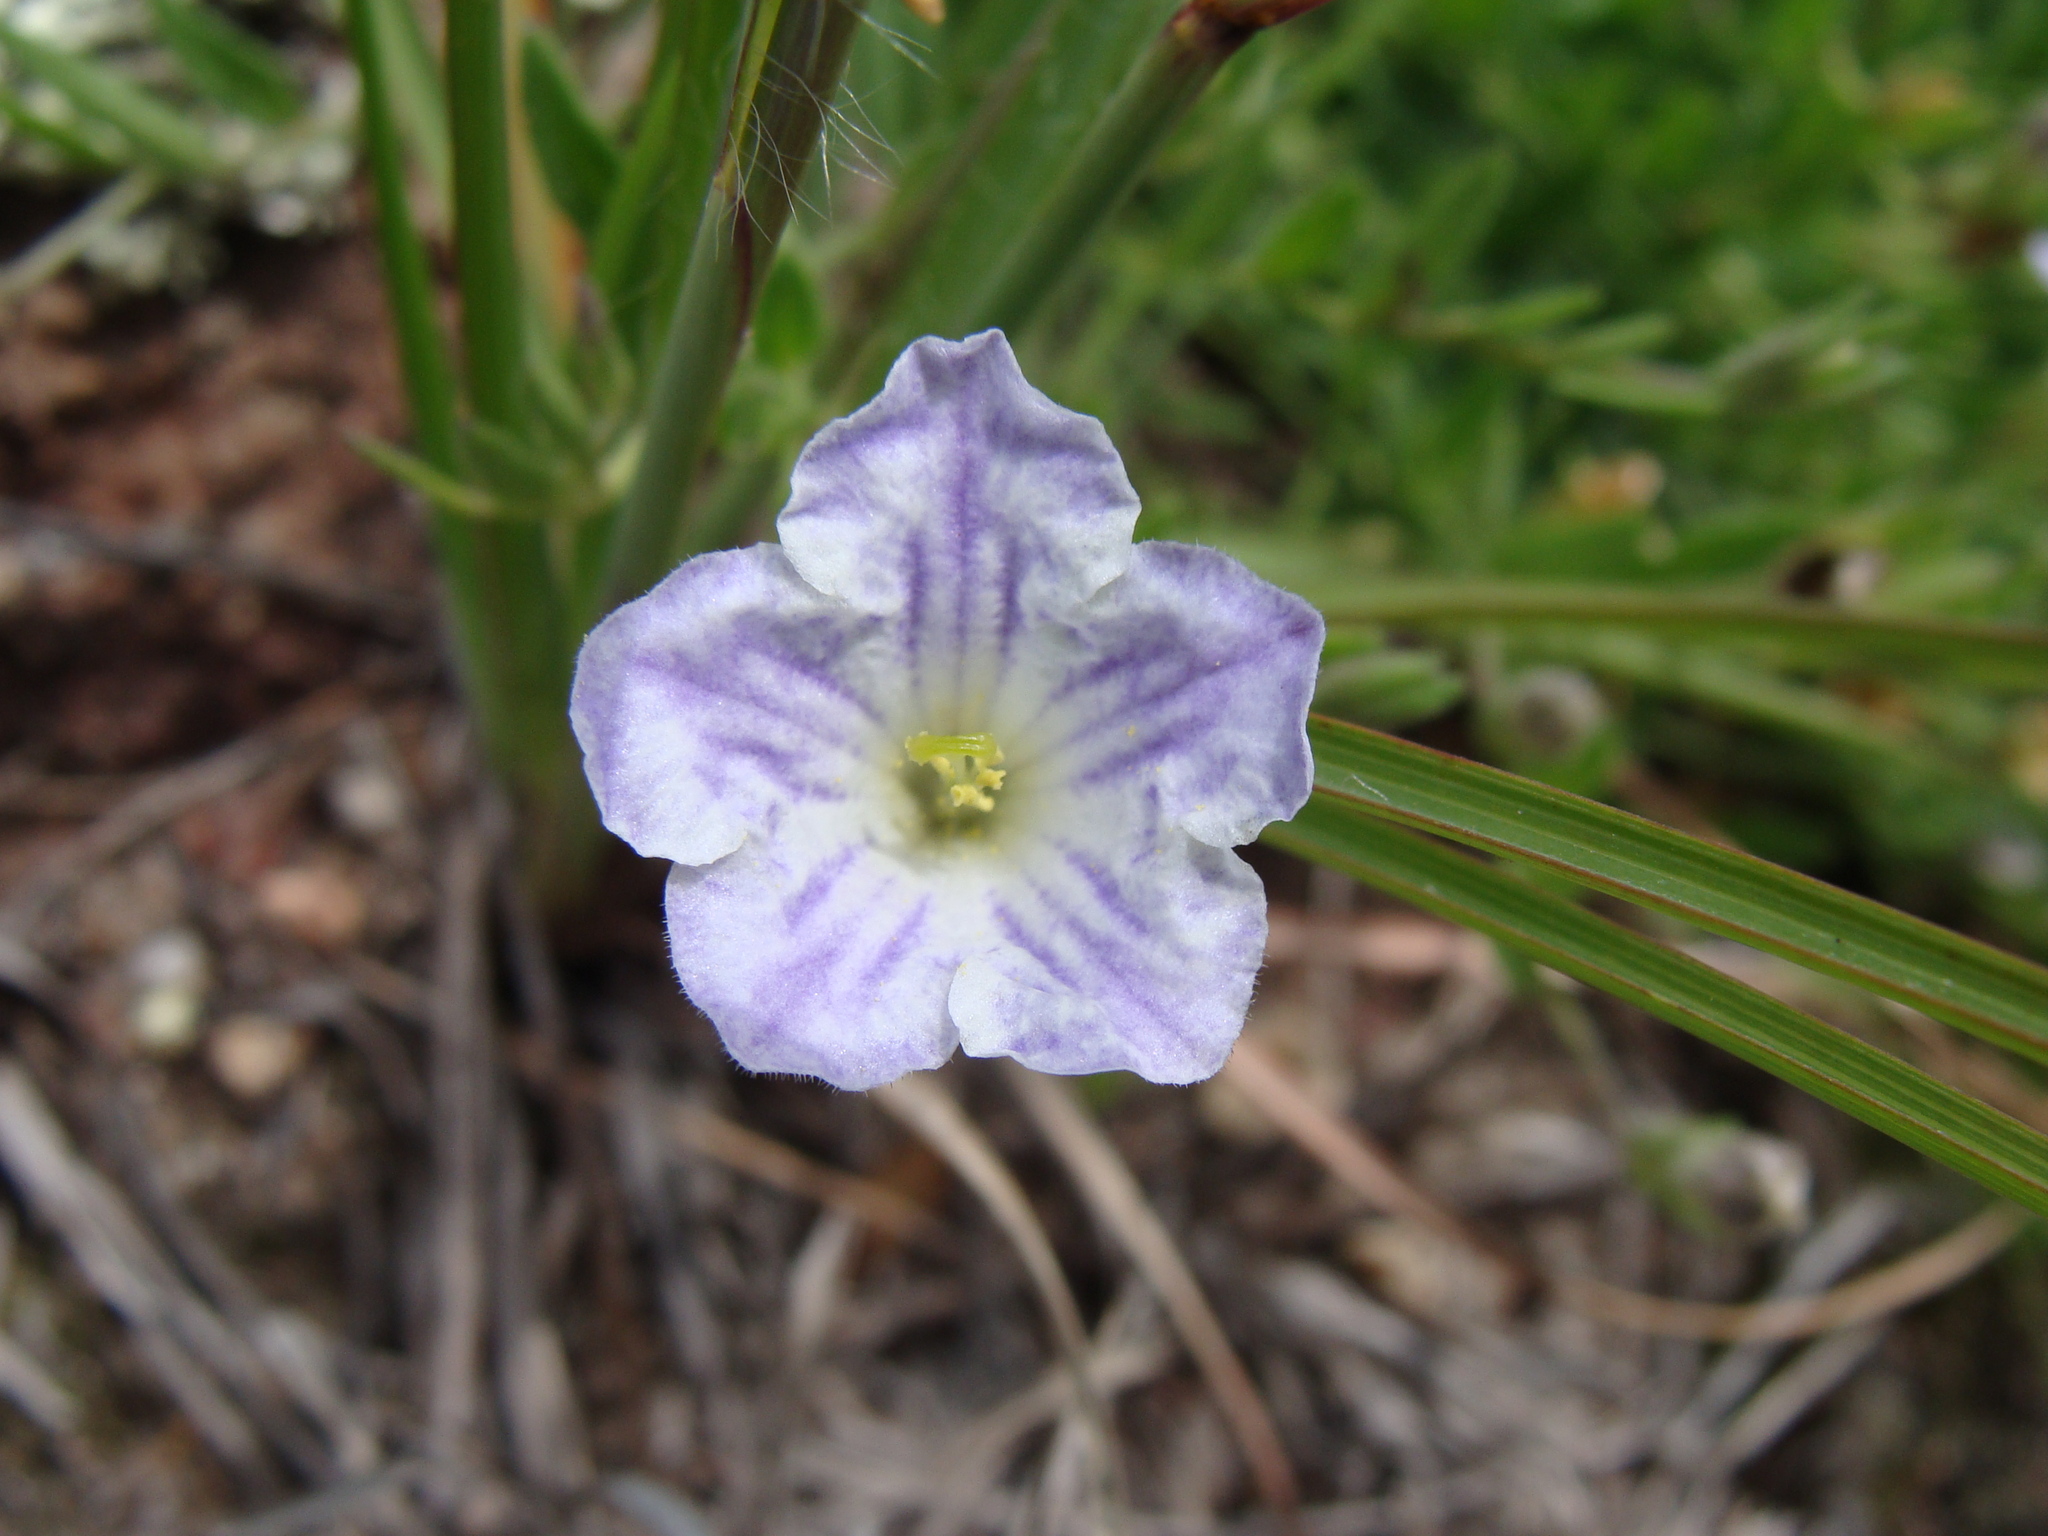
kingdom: Plantae
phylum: Tracheophyta
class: Magnoliopsida
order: Solanales
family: Solanaceae
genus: Salpiglossis
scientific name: Salpiglossis erecta
